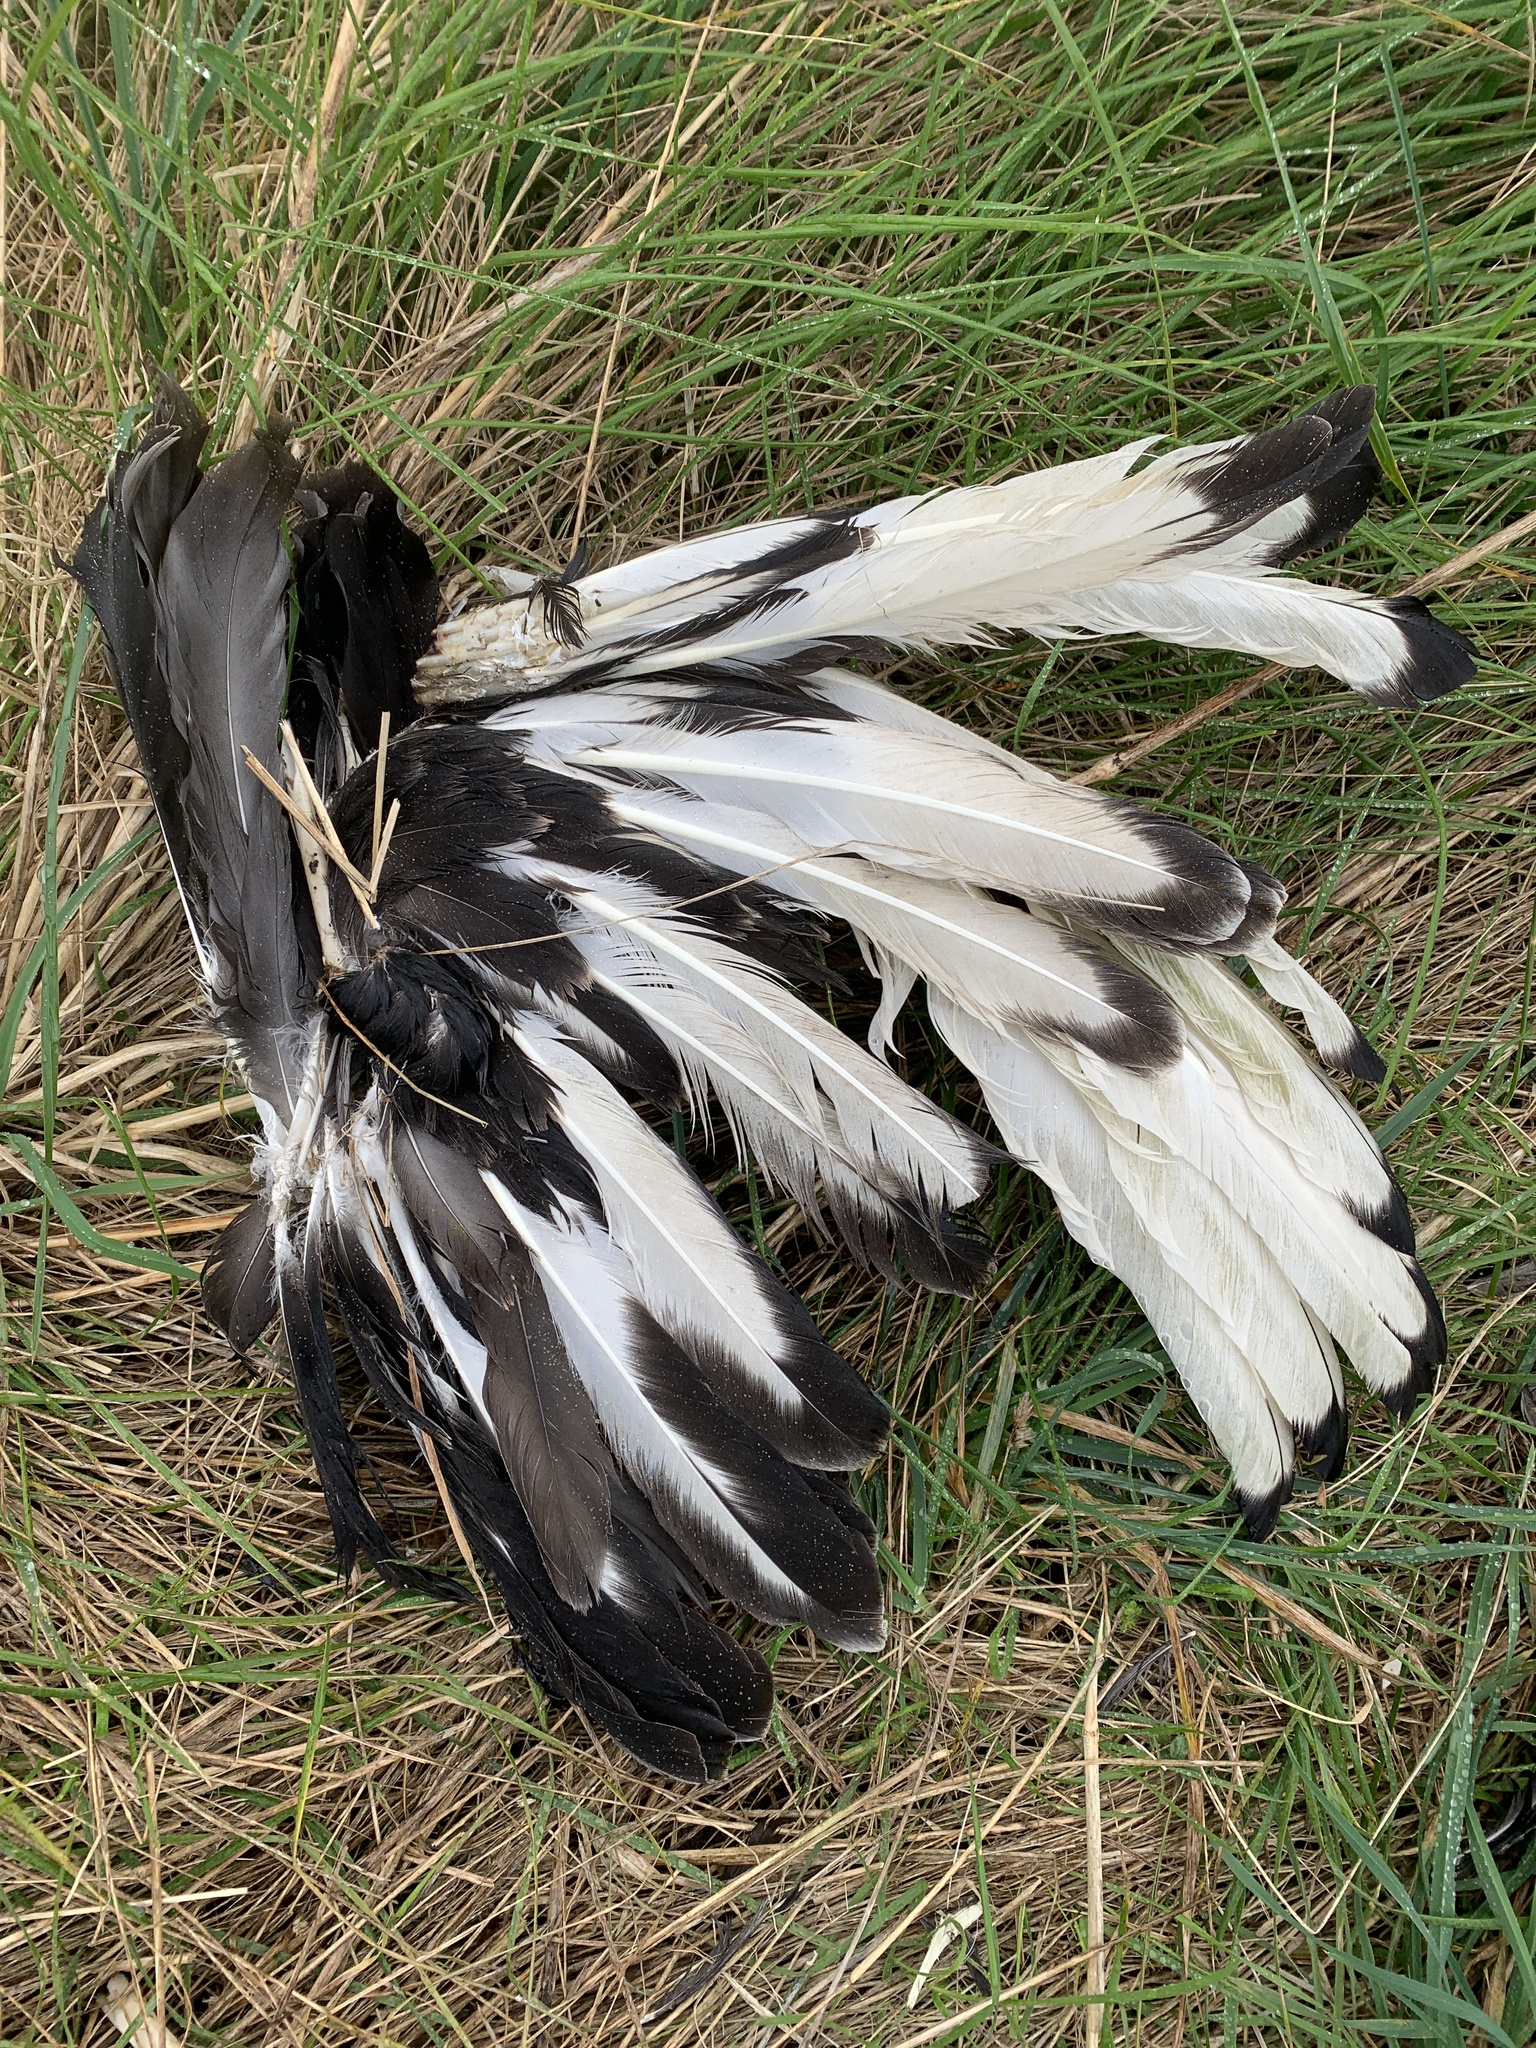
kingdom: Animalia
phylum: Chordata
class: Aves
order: Anseriformes
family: Anatidae
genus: Cygnus
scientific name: Cygnus atratus
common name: Black swan
